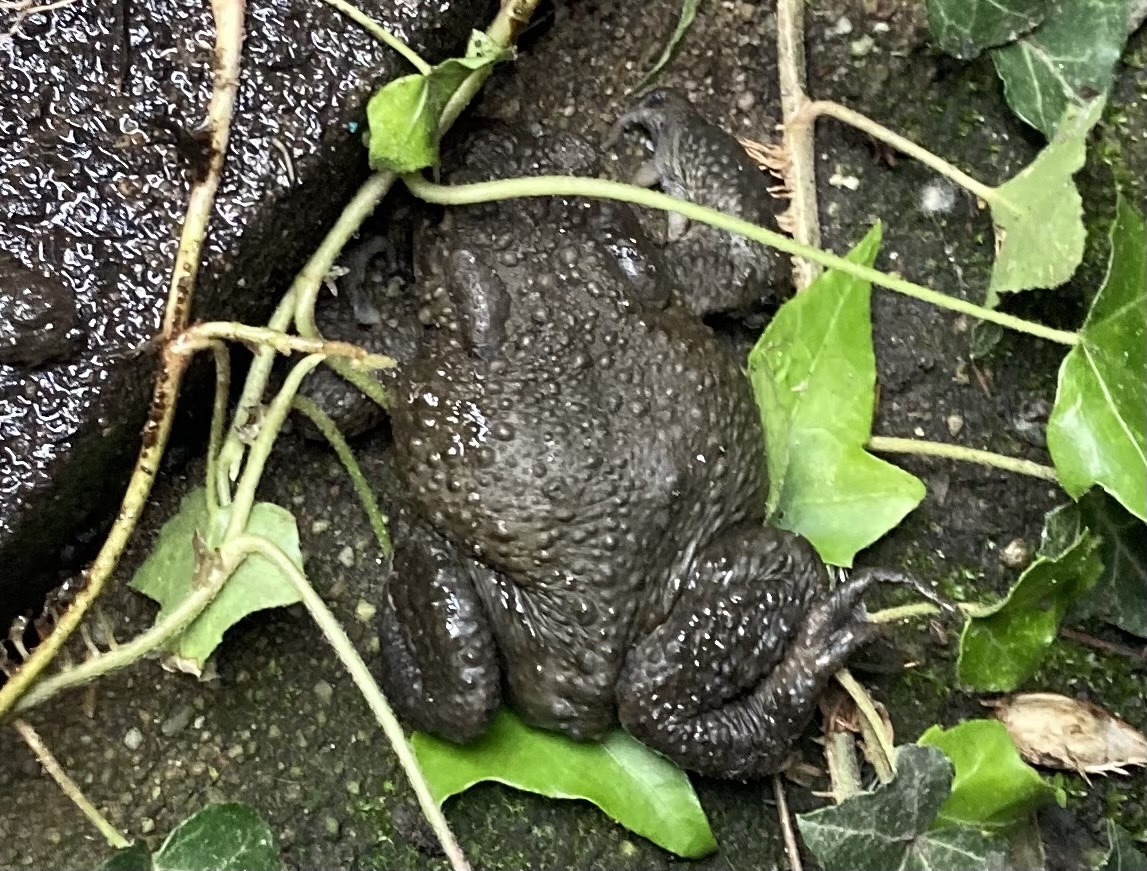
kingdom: Animalia
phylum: Chordata
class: Amphibia
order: Anura
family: Bufonidae
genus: Bufo
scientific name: Bufo bufo
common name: Common toad
